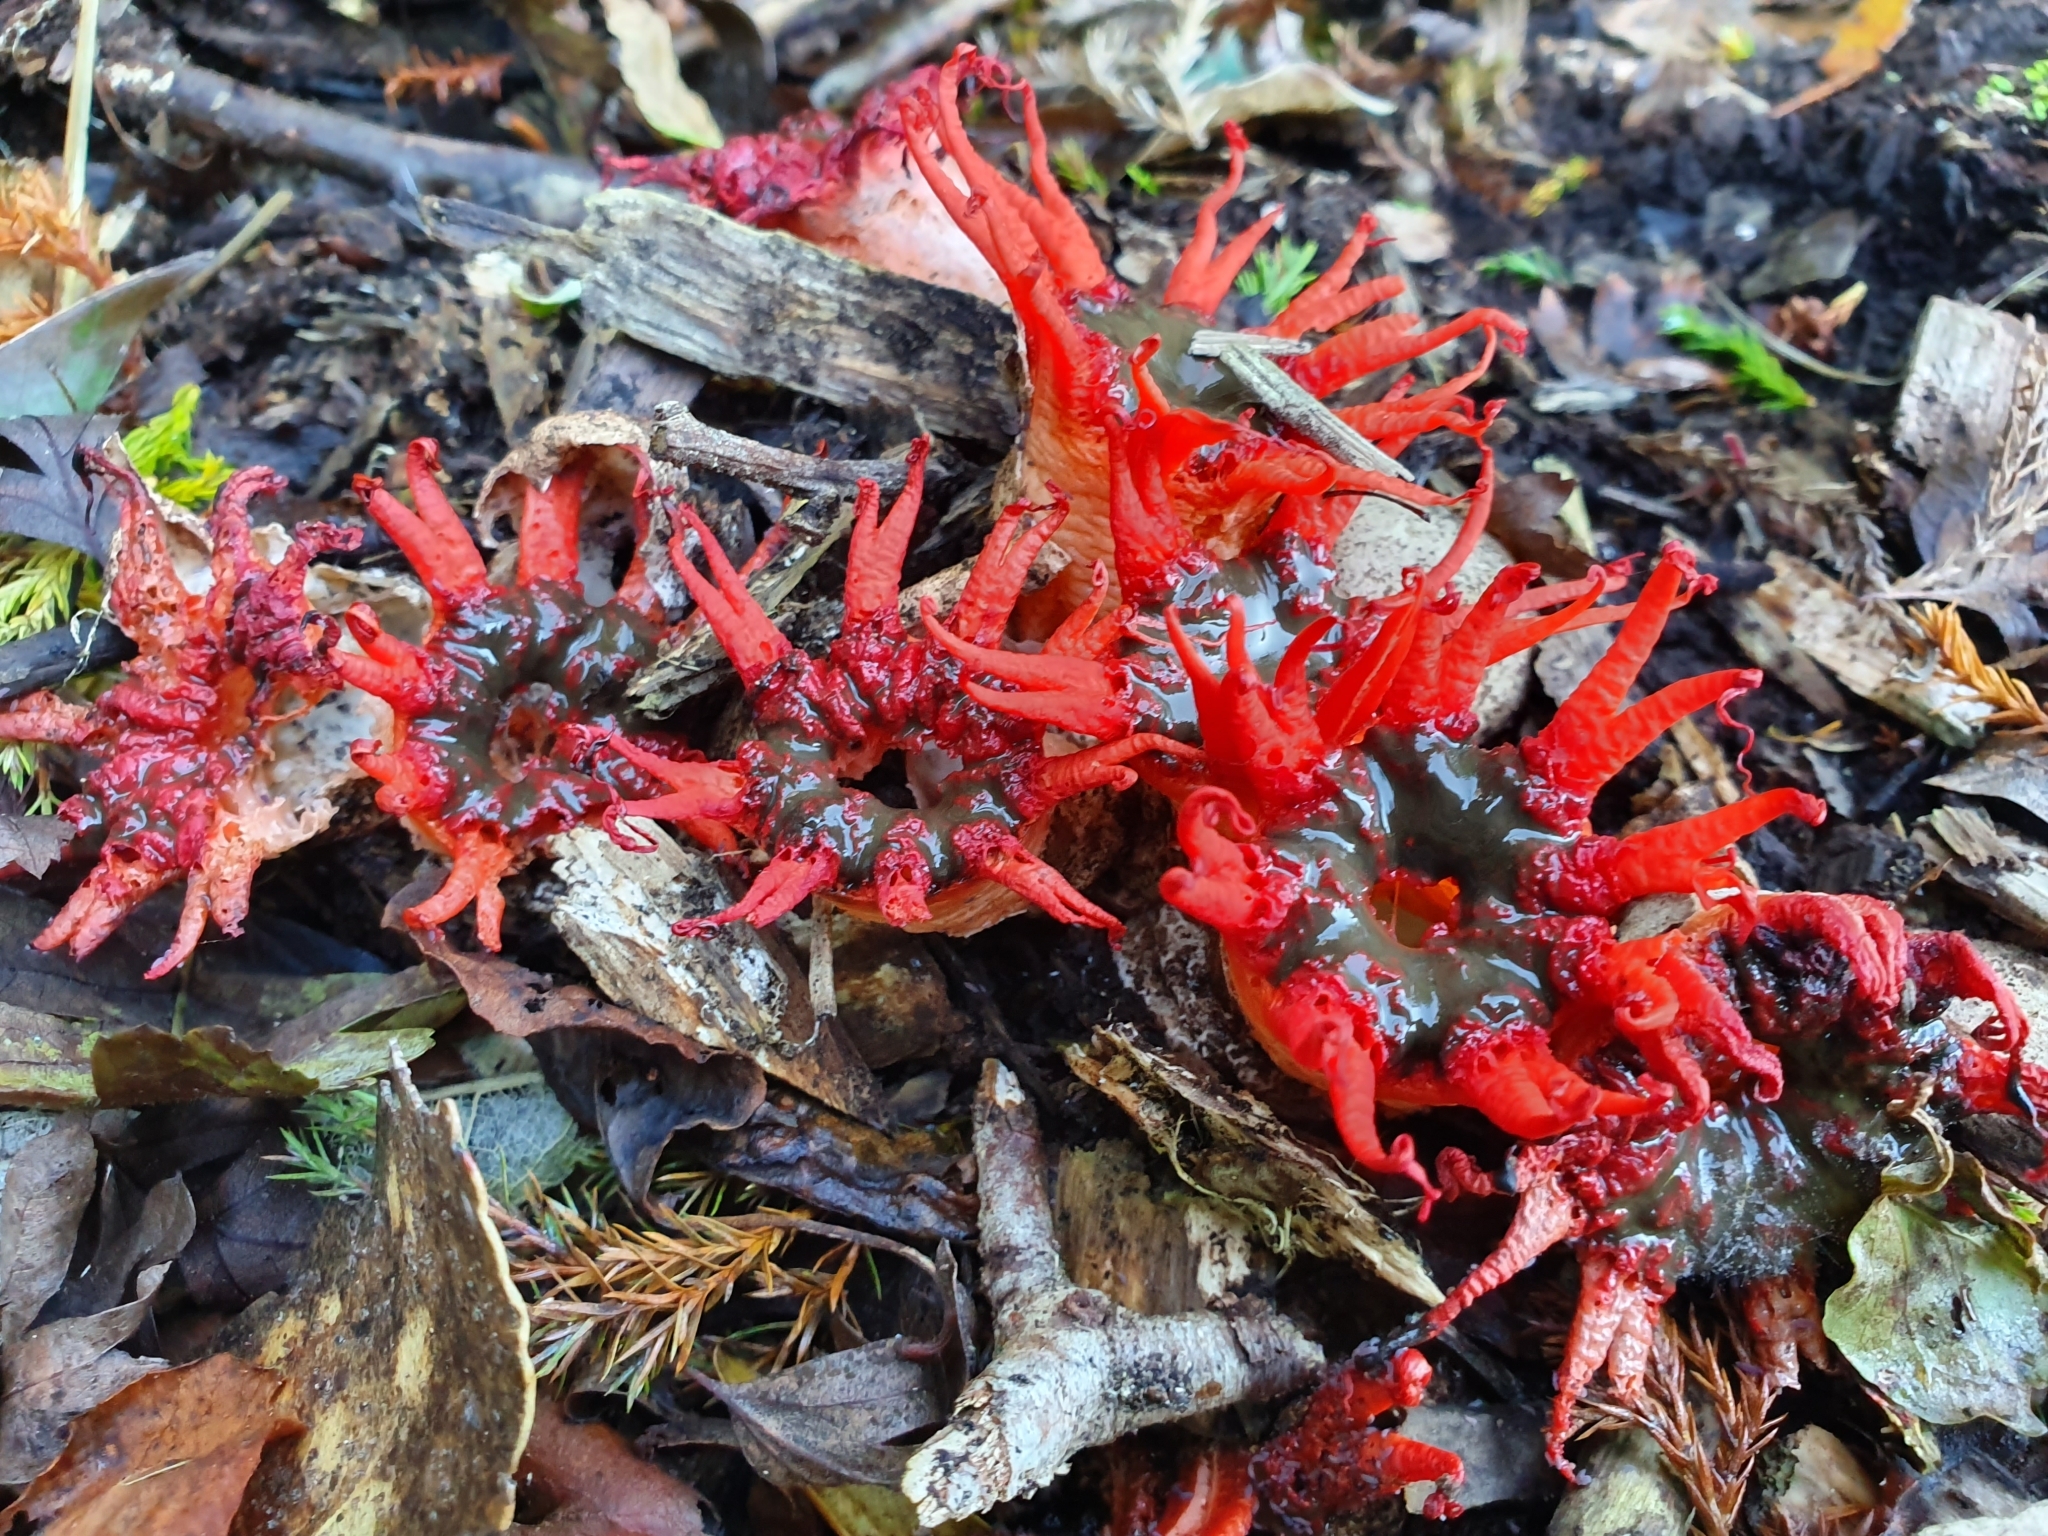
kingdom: Fungi
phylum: Basidiomycota
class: Agaricomycetes
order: Phallales
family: Phallaceae
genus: Aseroe
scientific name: Aseroe rubra
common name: Starfish fungus
